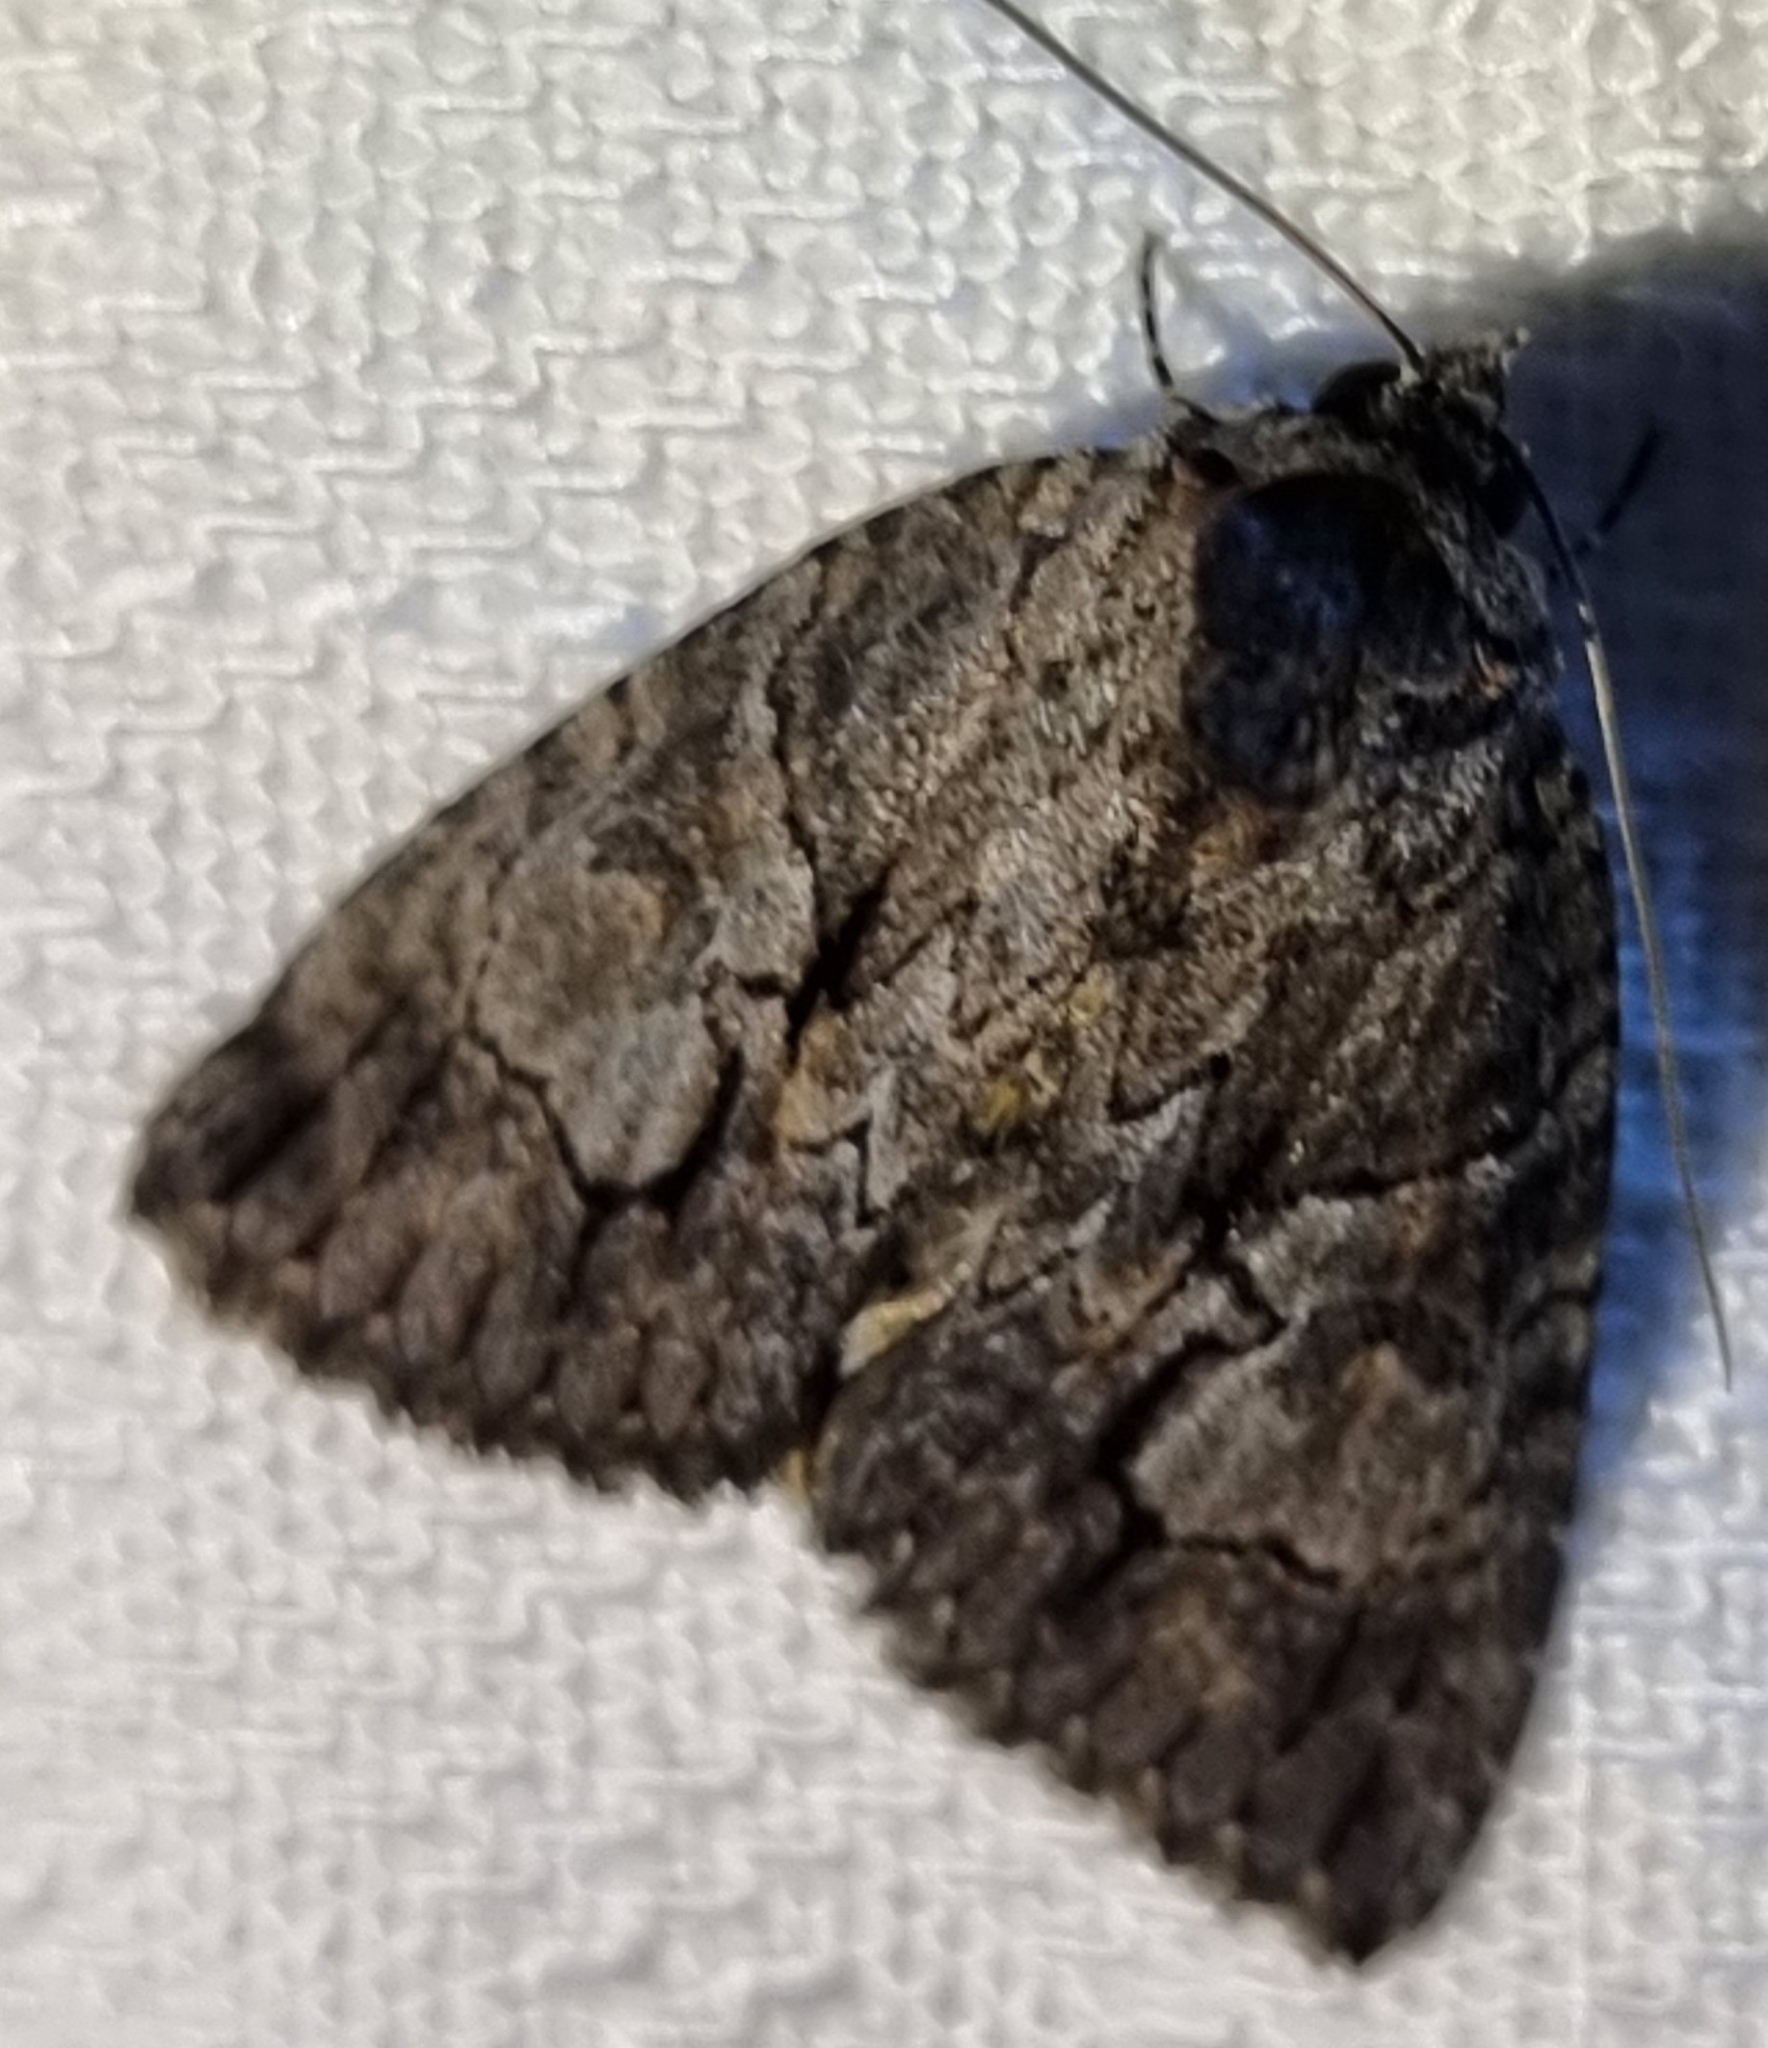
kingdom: Animalia
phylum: Arthropoda
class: Insecta
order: Lepidoptera
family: Erebidae
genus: Crioa
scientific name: Crioa acronyctoides
